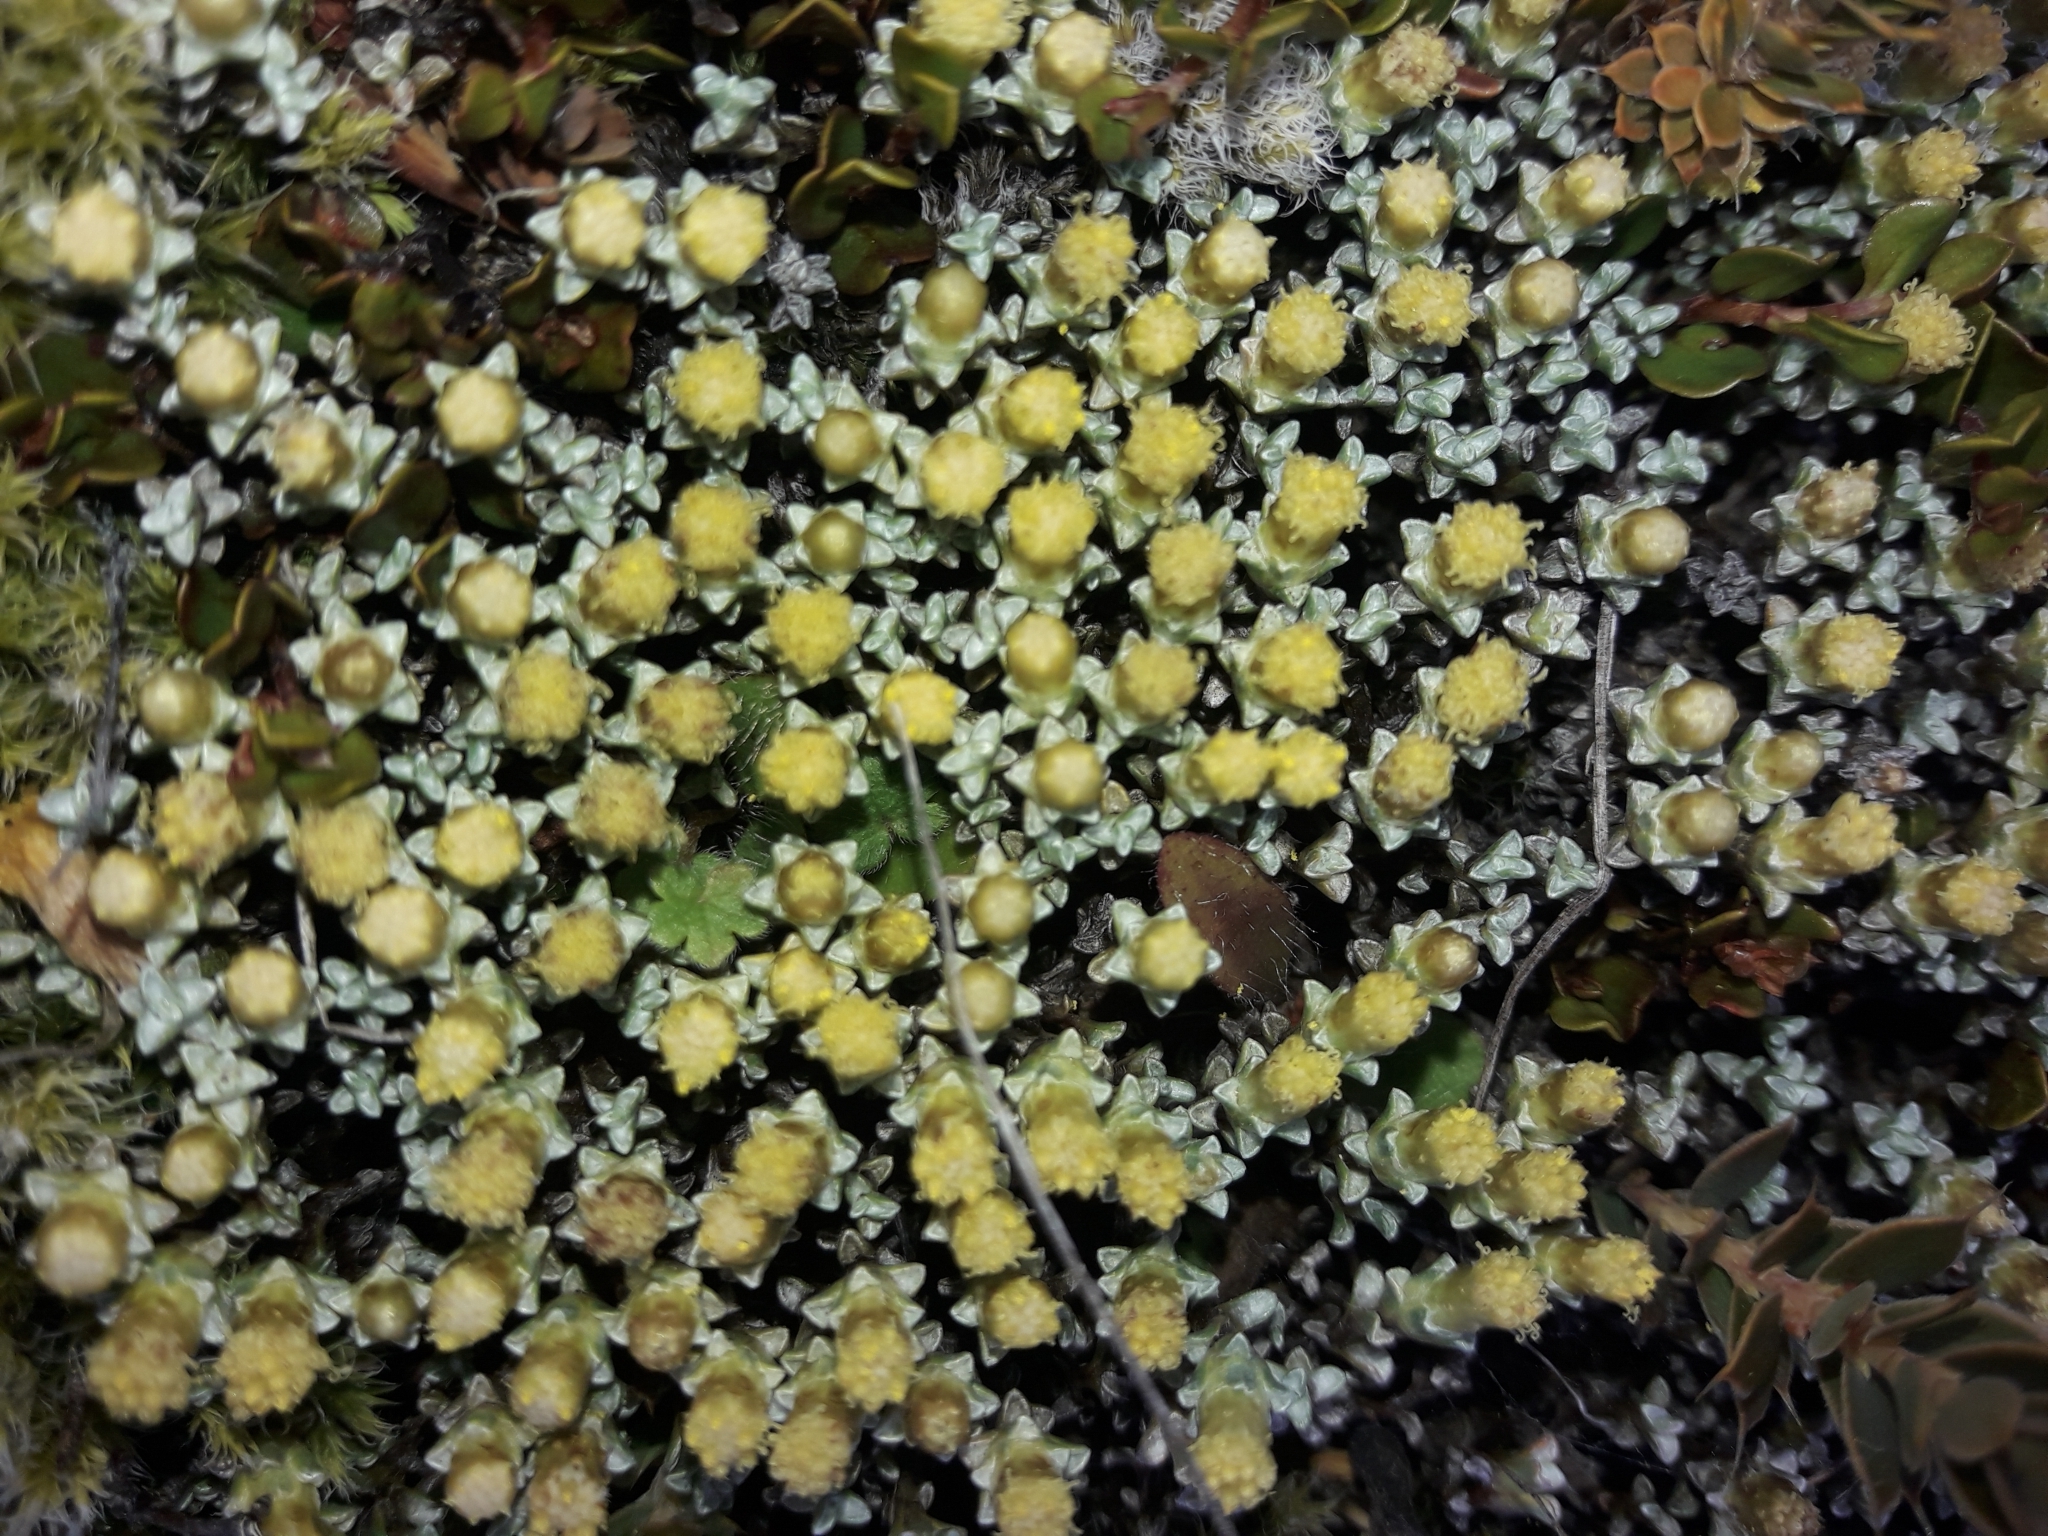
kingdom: Plantae
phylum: Tracheophyta
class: Magnoliopsida
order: Asterales
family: Asteraceae
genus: Raoulia
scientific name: Raoulia hookeri
